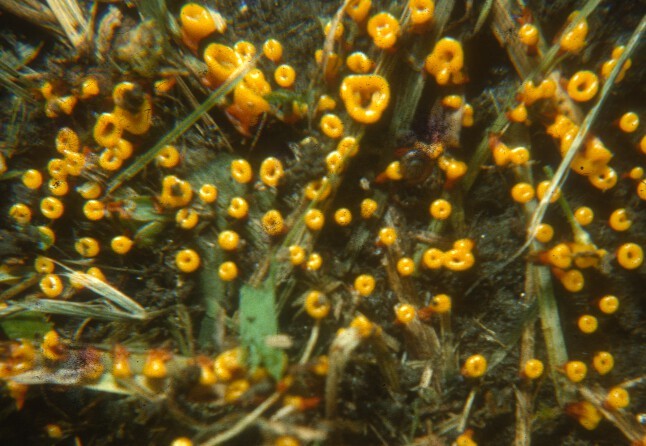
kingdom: Protozoa
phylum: Mycetozoa
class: Myxomycetes
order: Physarales
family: Physaraceae
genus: Physarella
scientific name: Physarella oblonga
